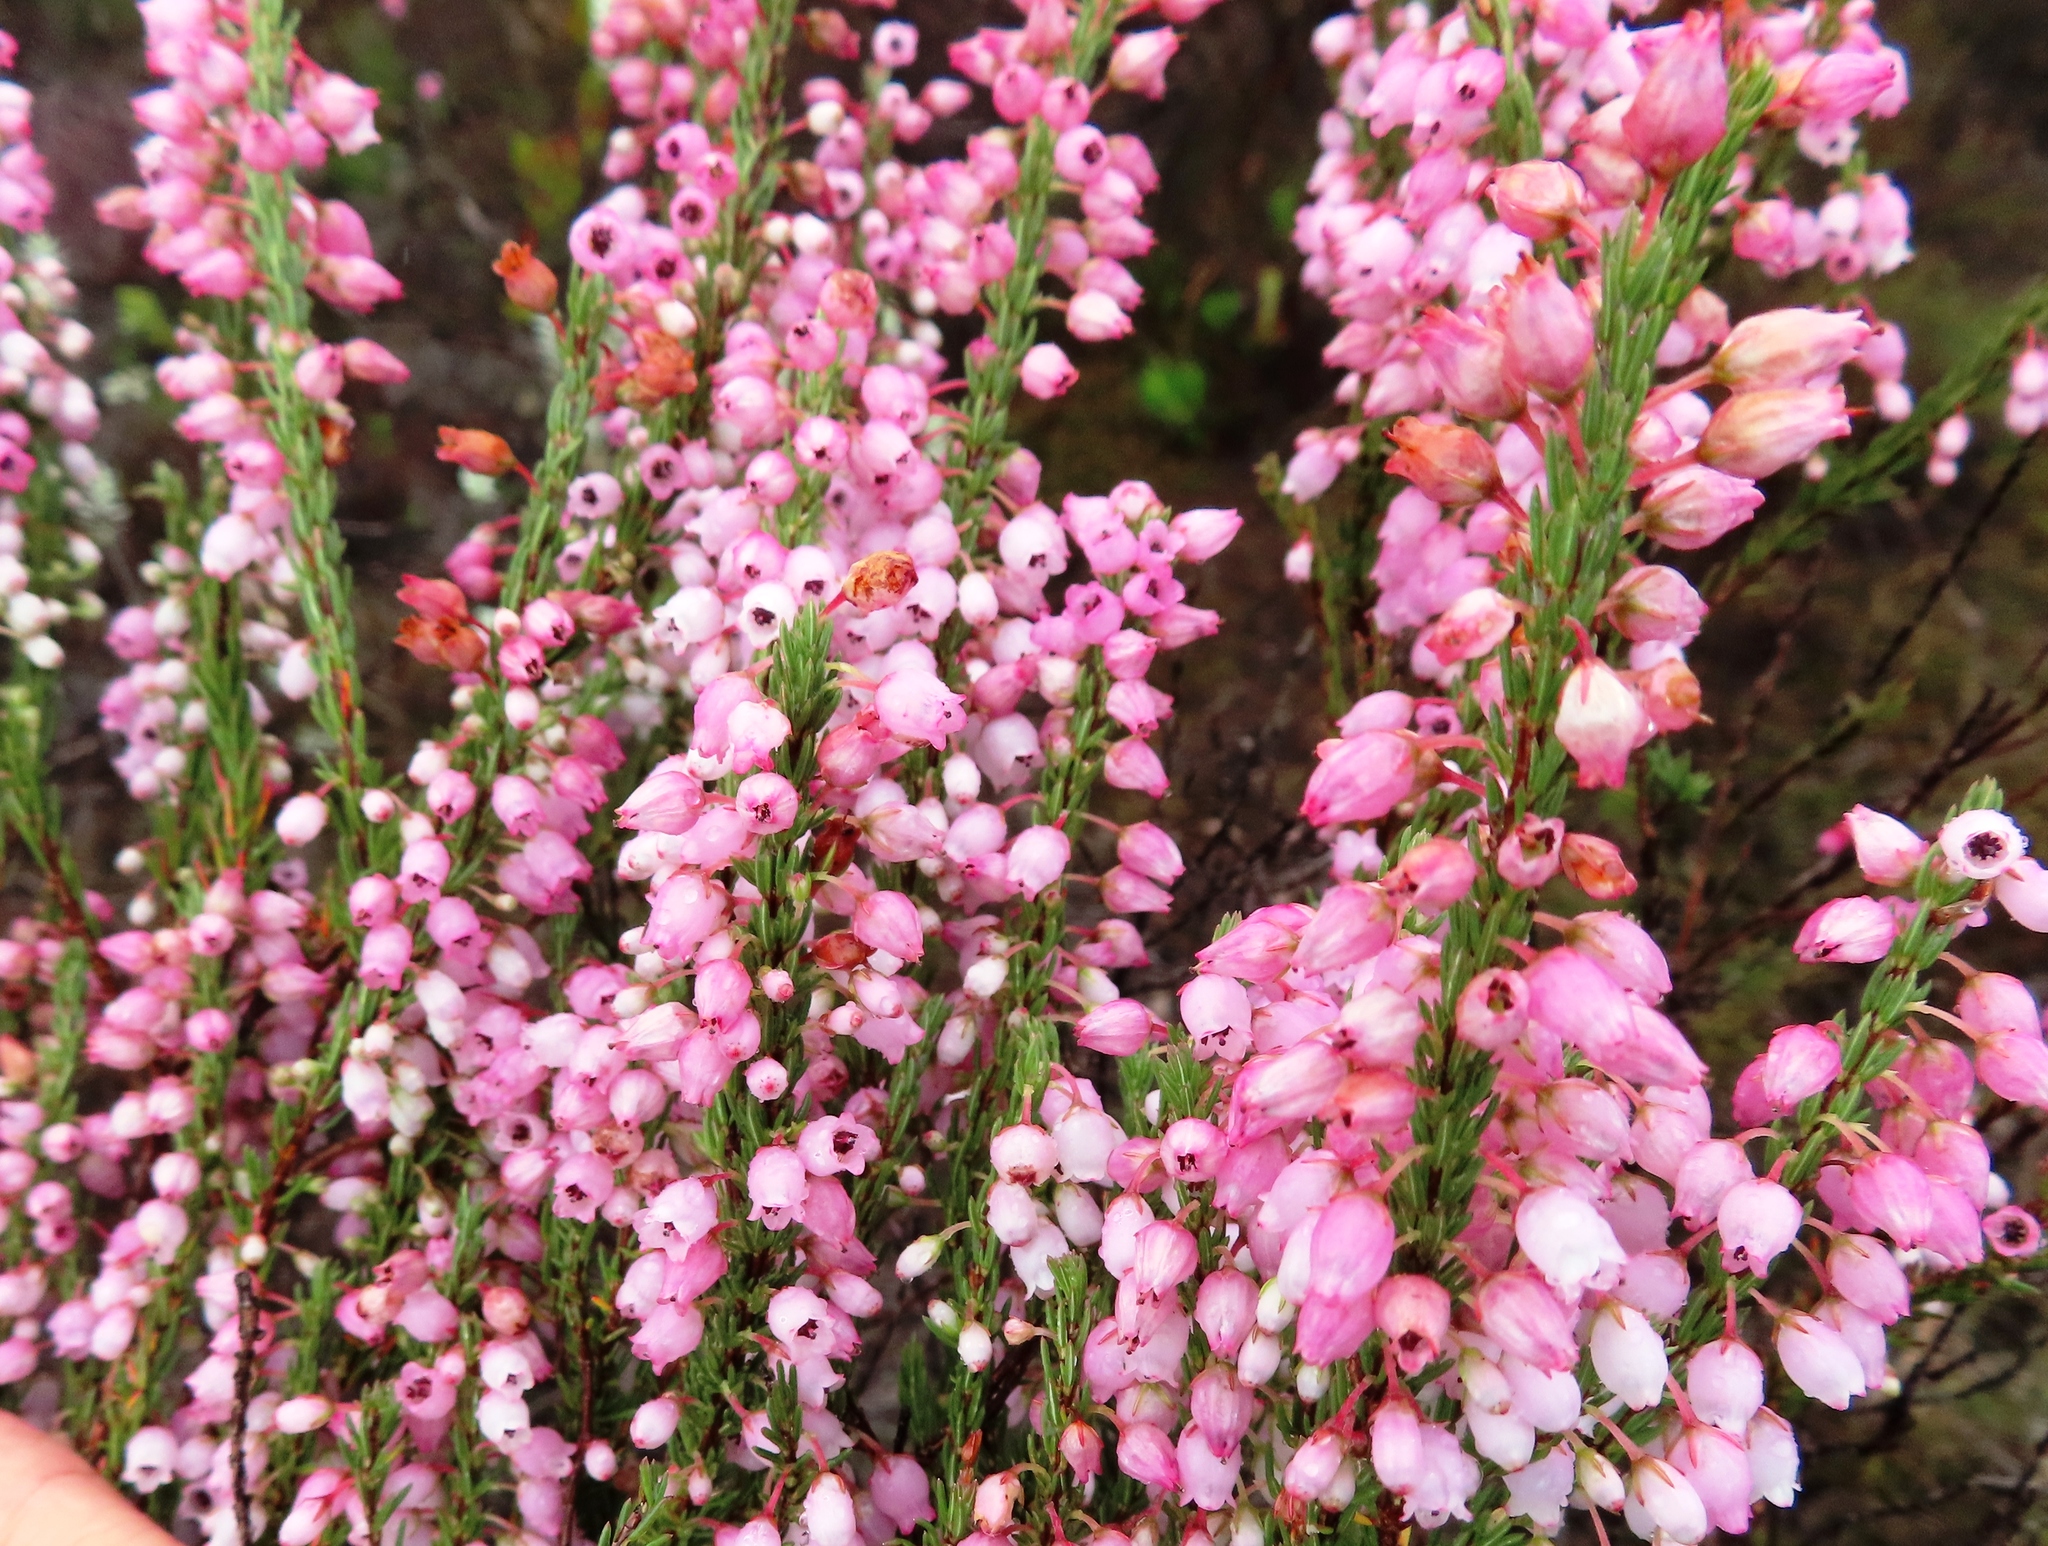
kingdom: Plantae
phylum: Tracheophyta
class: Magnoliopsida
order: Ericales
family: Ericaceae
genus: Erica
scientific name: Erica filipendula
